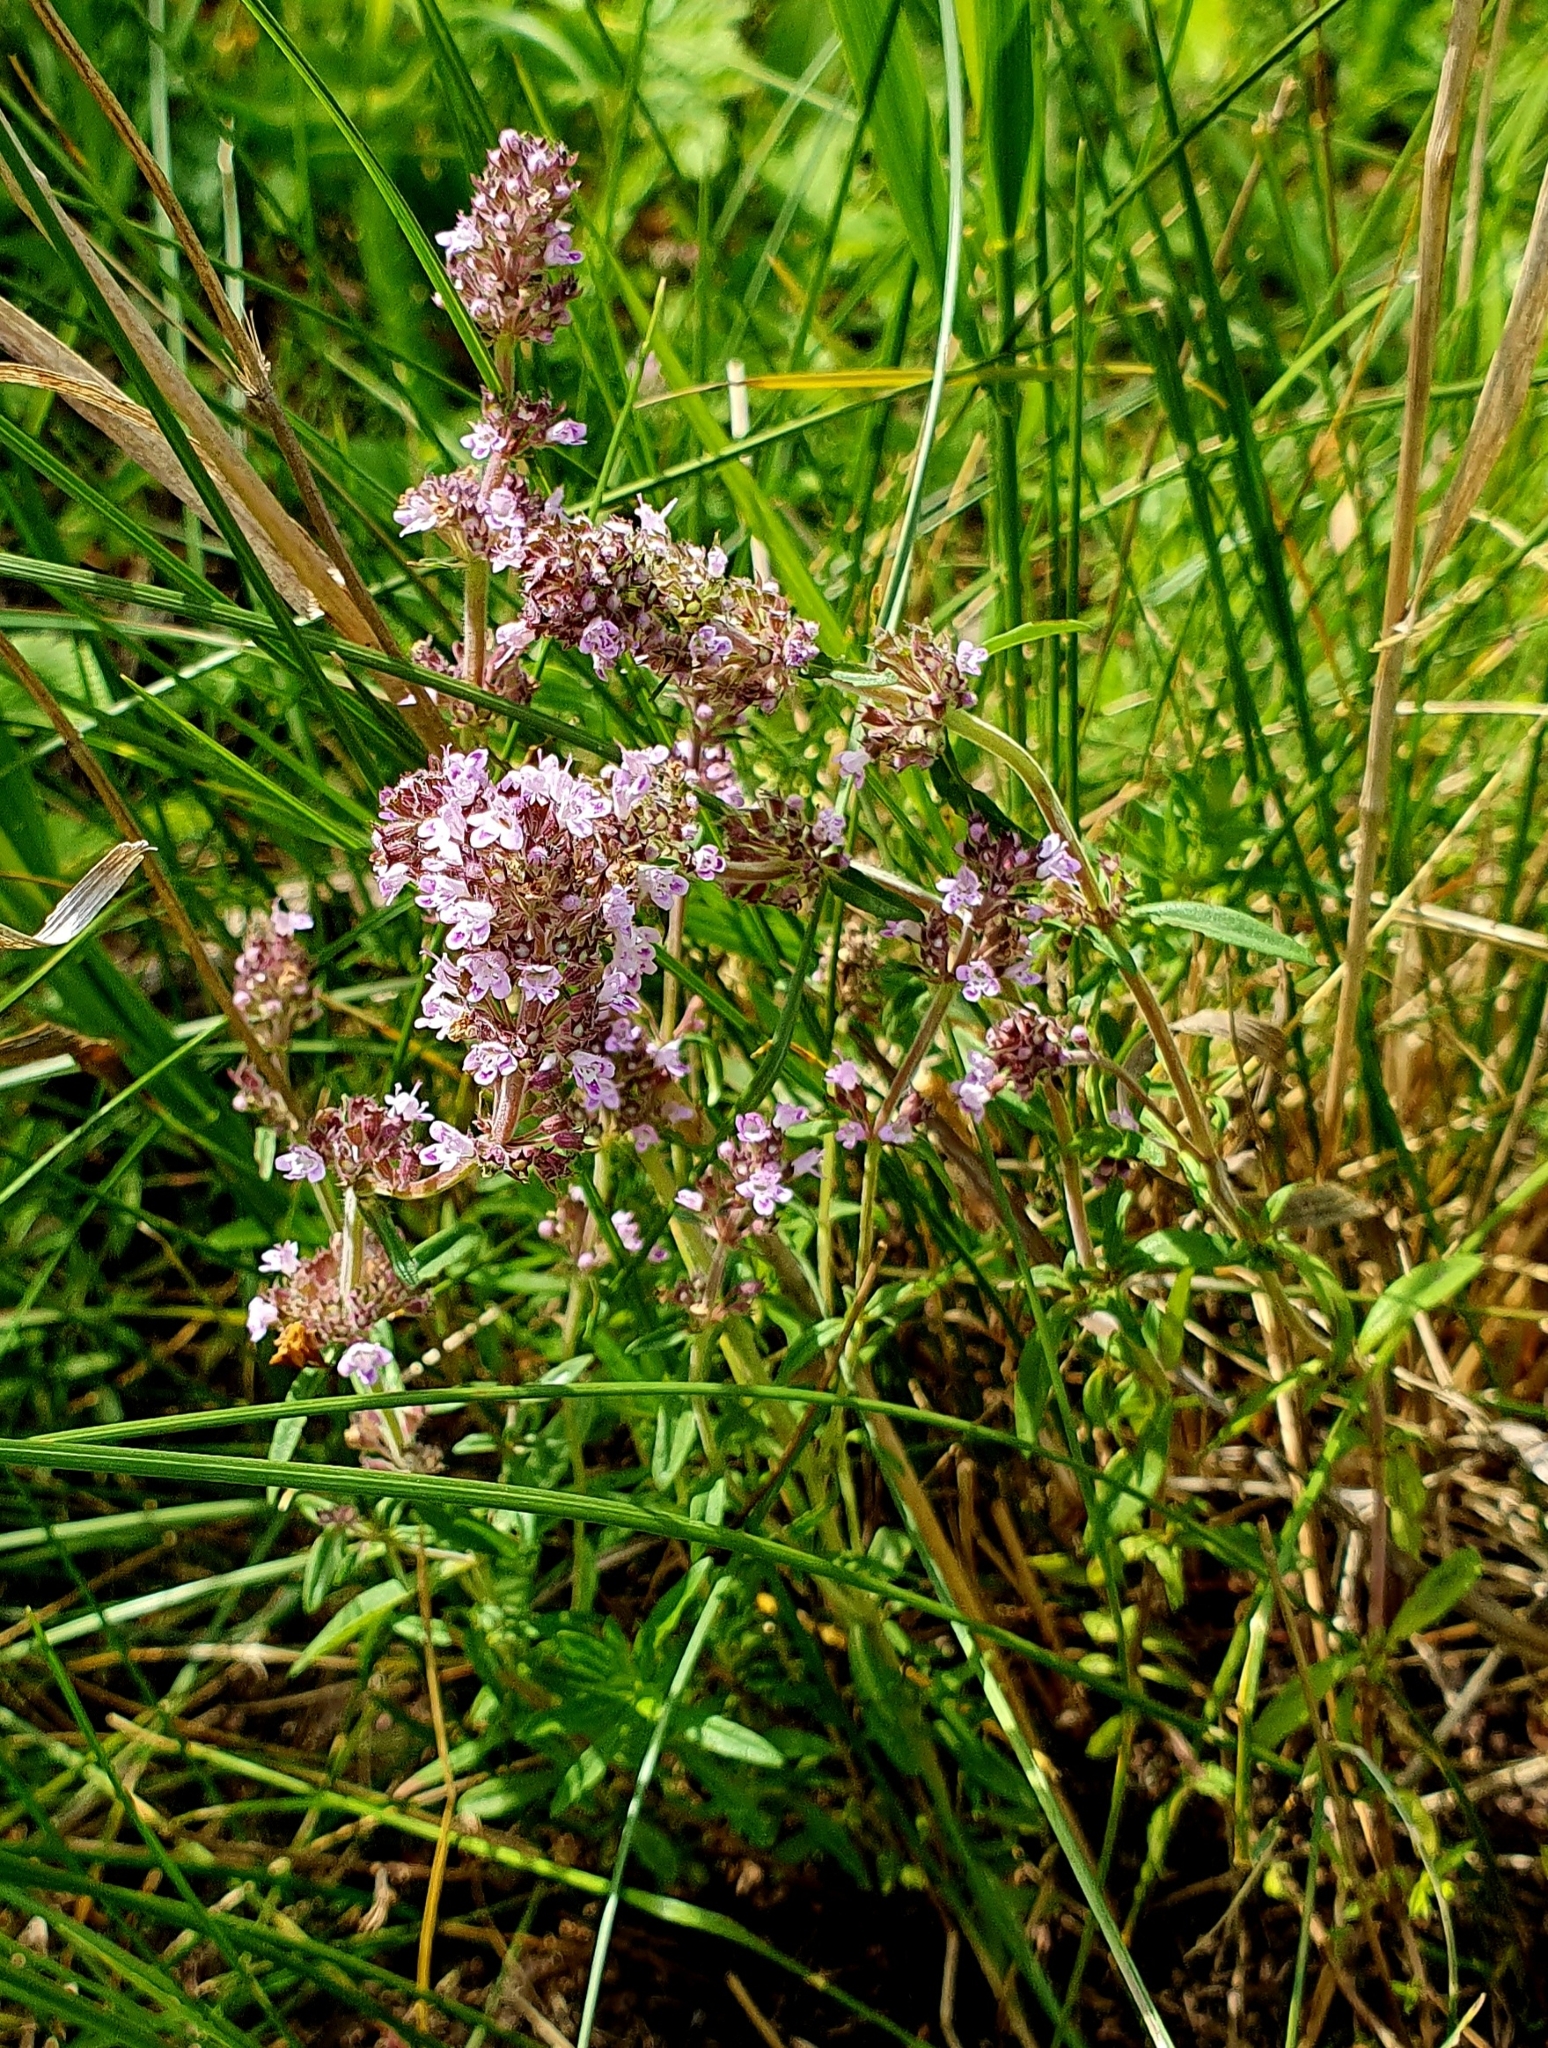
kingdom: Plantae
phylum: Tracheophyta
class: Magnoliopsida
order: Lamiales
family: Lamiaceae
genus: Thymus
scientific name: Thymus pannonicus
